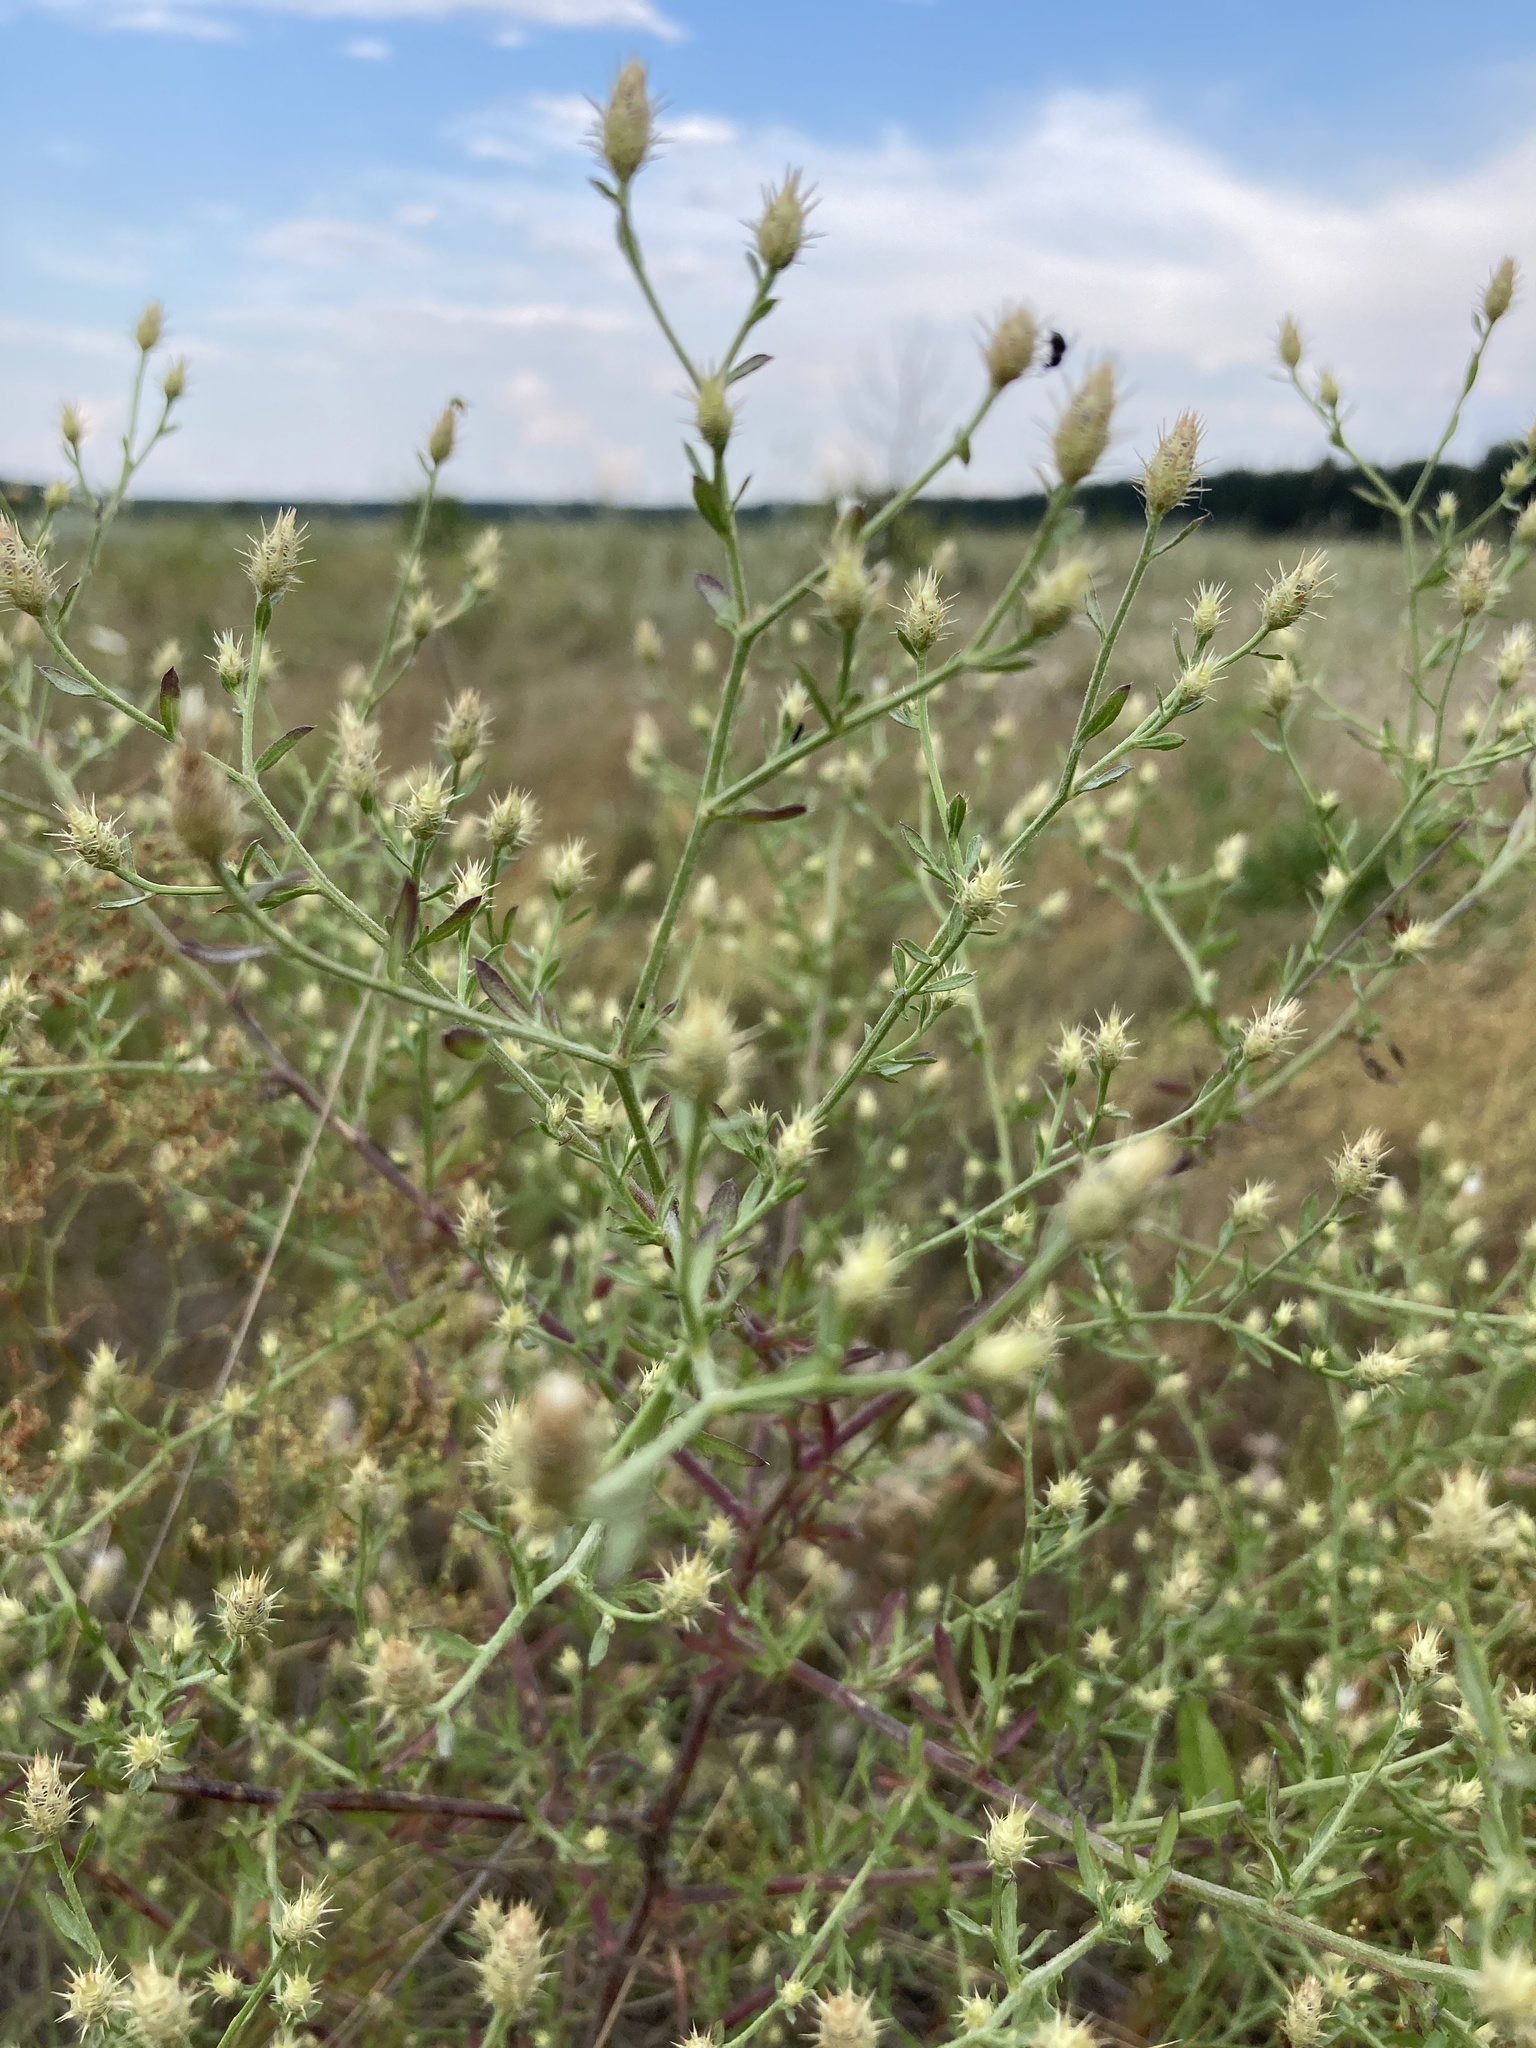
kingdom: Plantae
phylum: Tracheophyta
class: Magnoliopsida
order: Asterales
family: Asteraceae
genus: Centaurea
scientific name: Centaurea diffusa
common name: Diffuse knapweed
